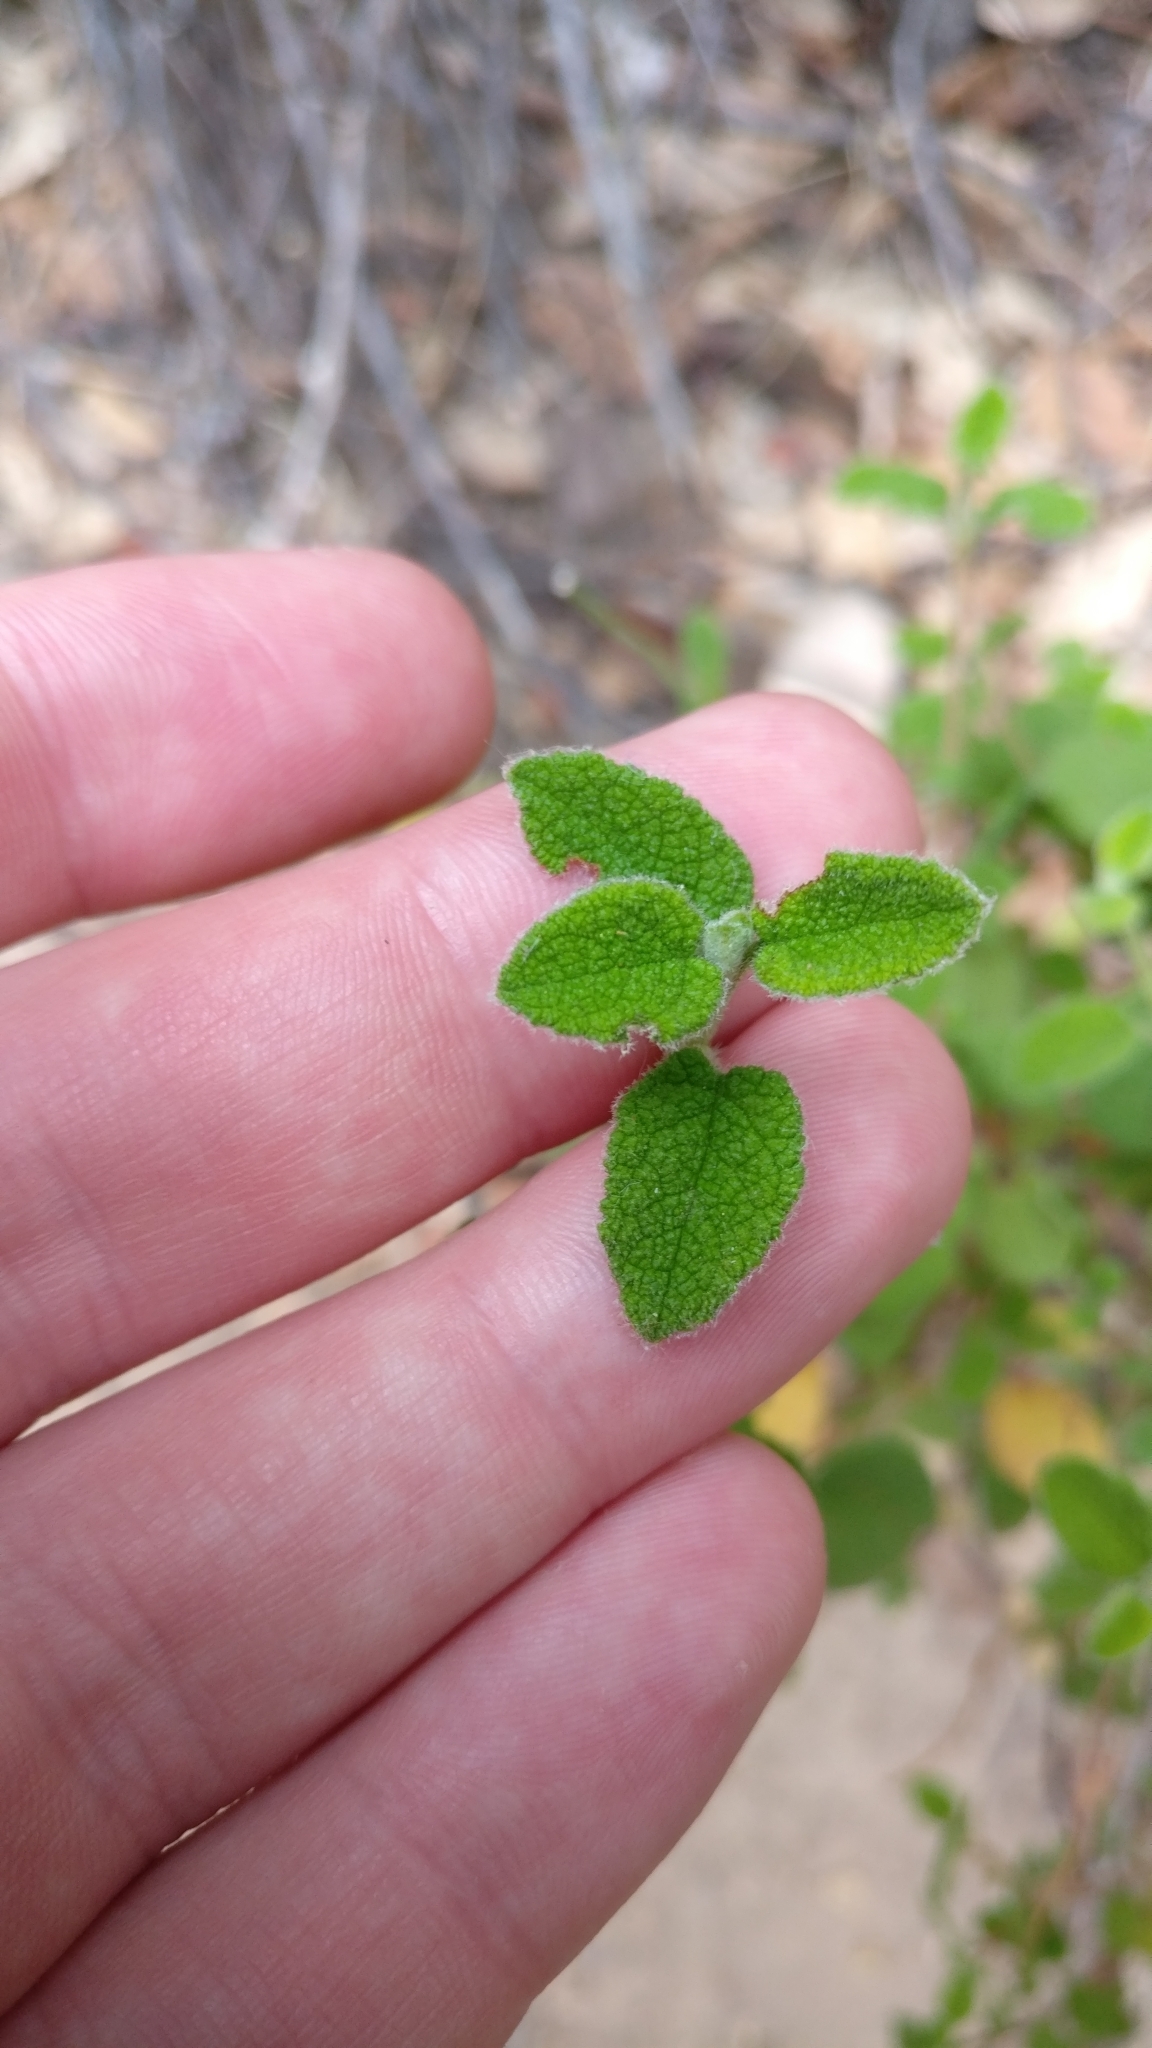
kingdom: Plantae
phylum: Tracheophyta
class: Magnoliopsida
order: Malvales
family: Cistaceae
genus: Cistus
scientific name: Cistus salviifolius
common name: Salvia cistus
